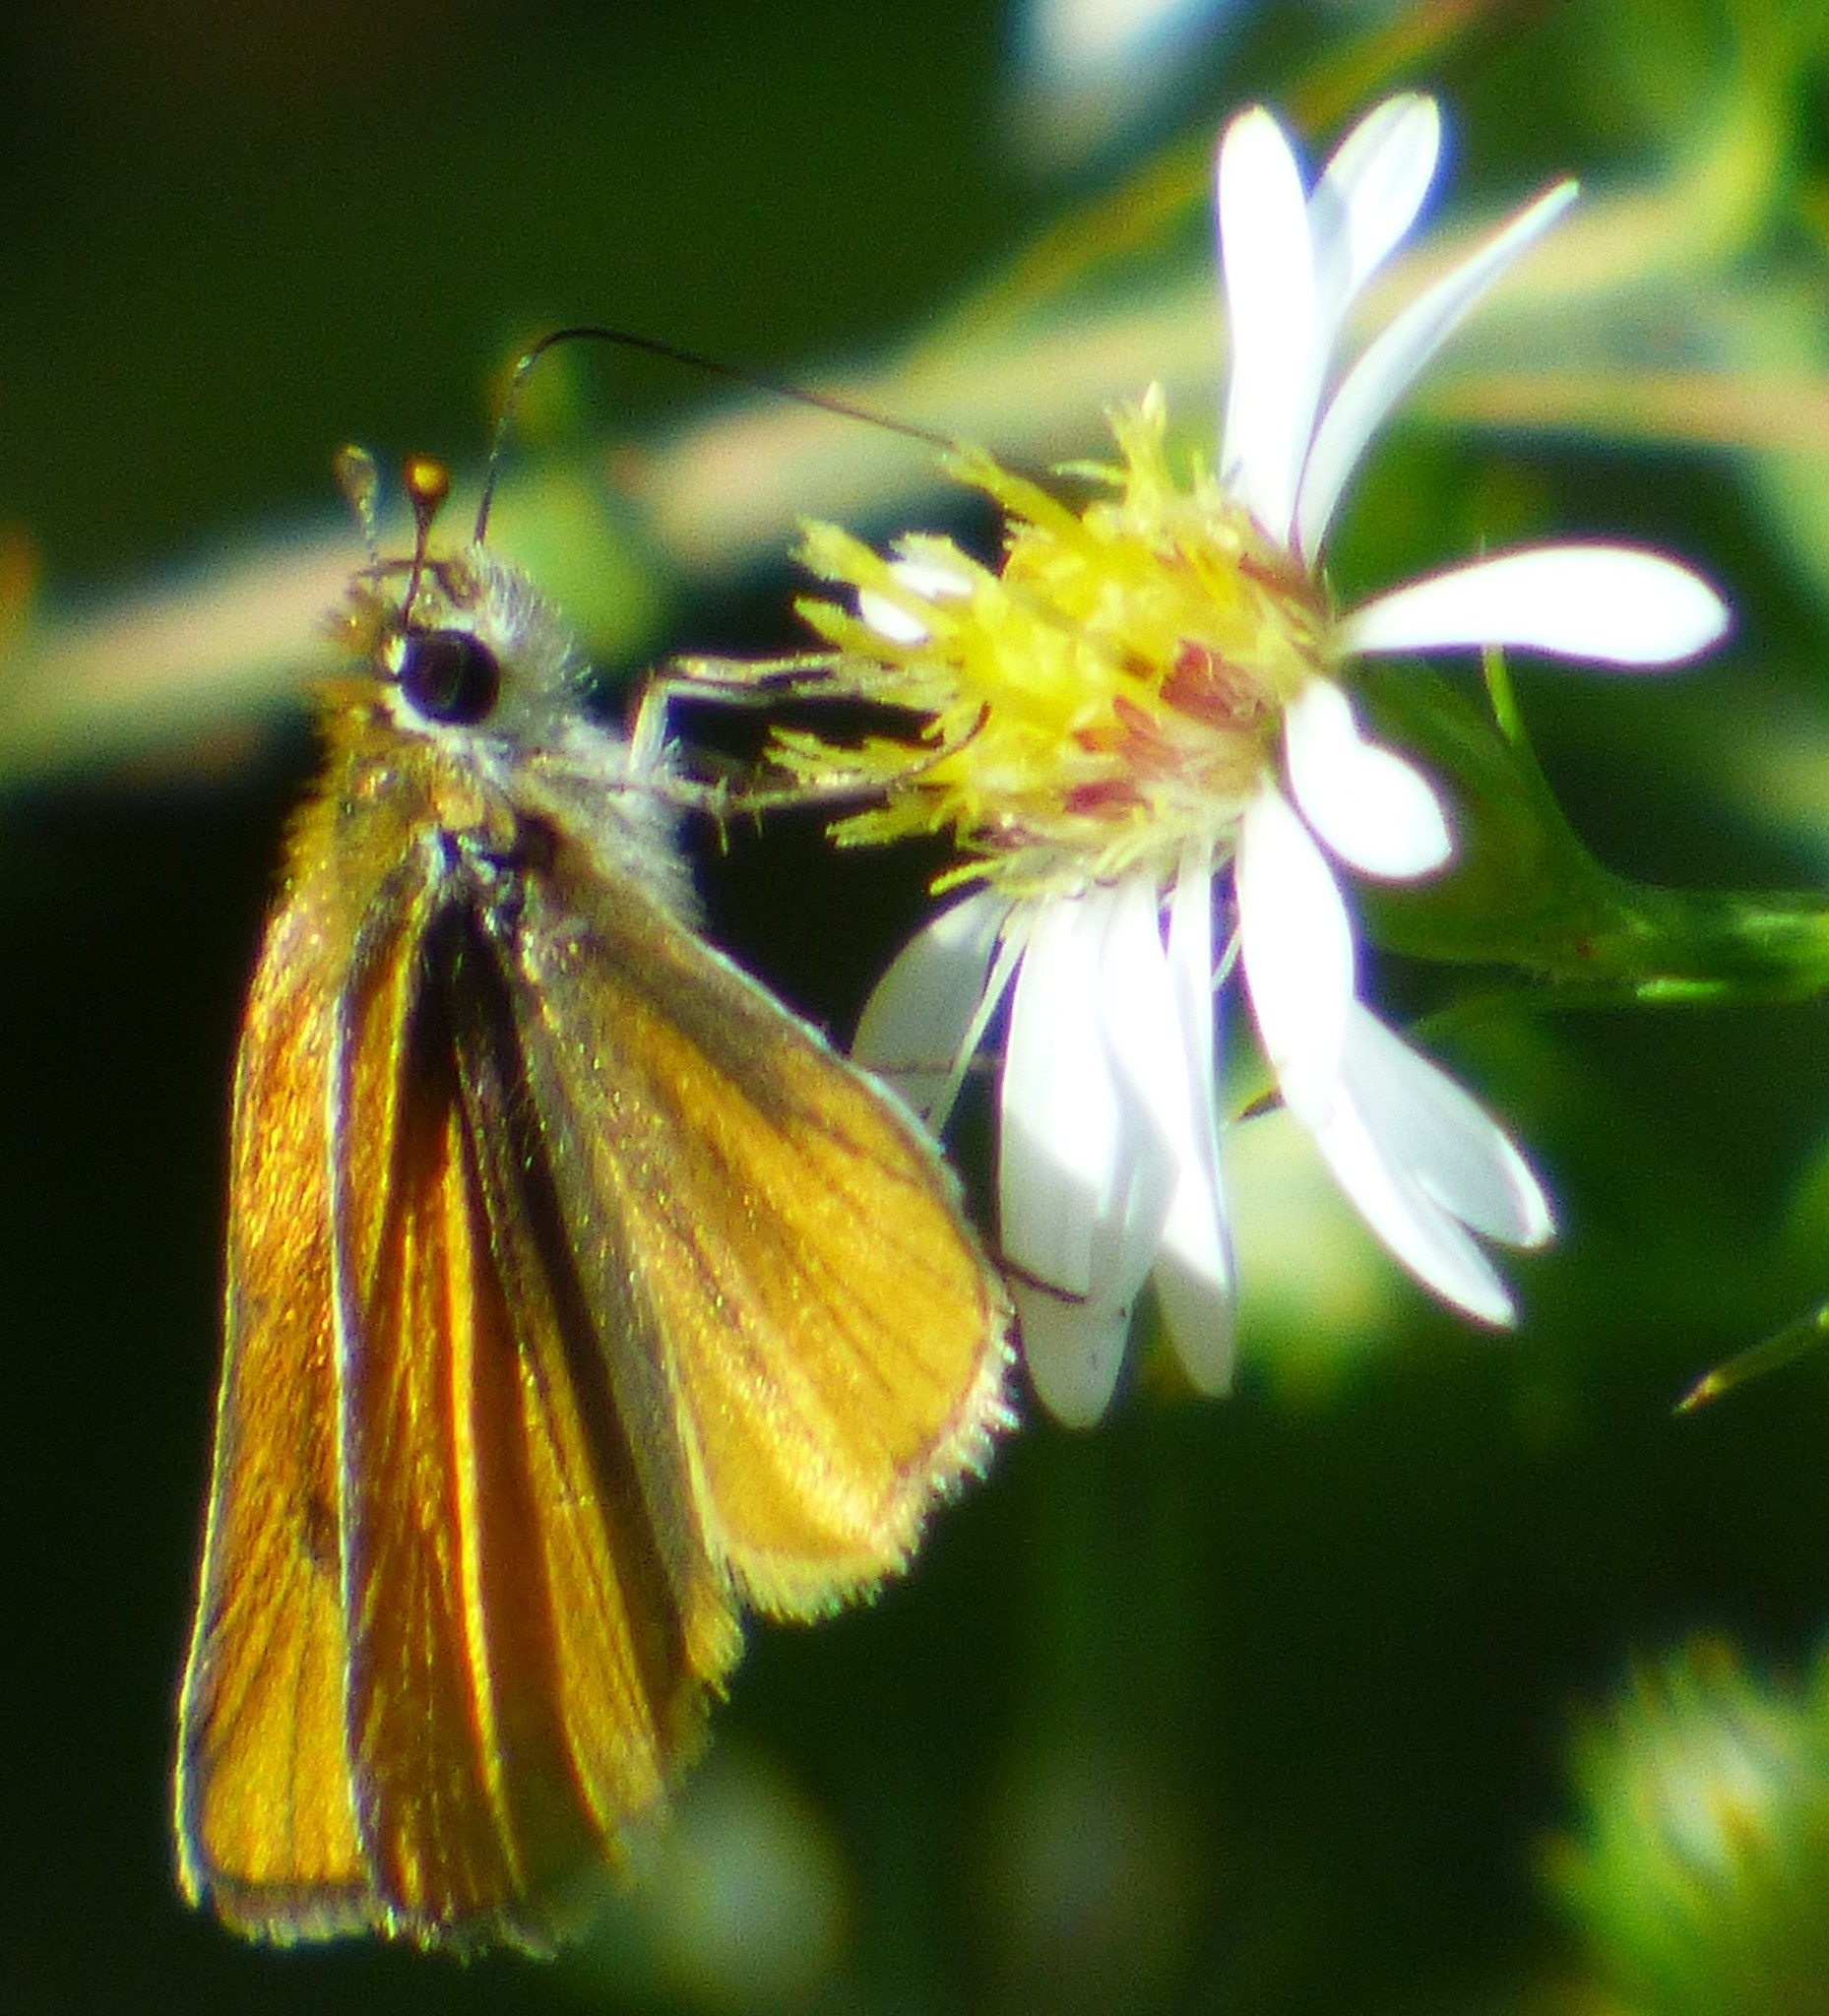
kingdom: Animalia
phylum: Arthropoda
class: Insecta
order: Lepidoptera
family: Hesperiidae
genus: Copaeodes
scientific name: Copaeodes minima
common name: Southern skipperling
